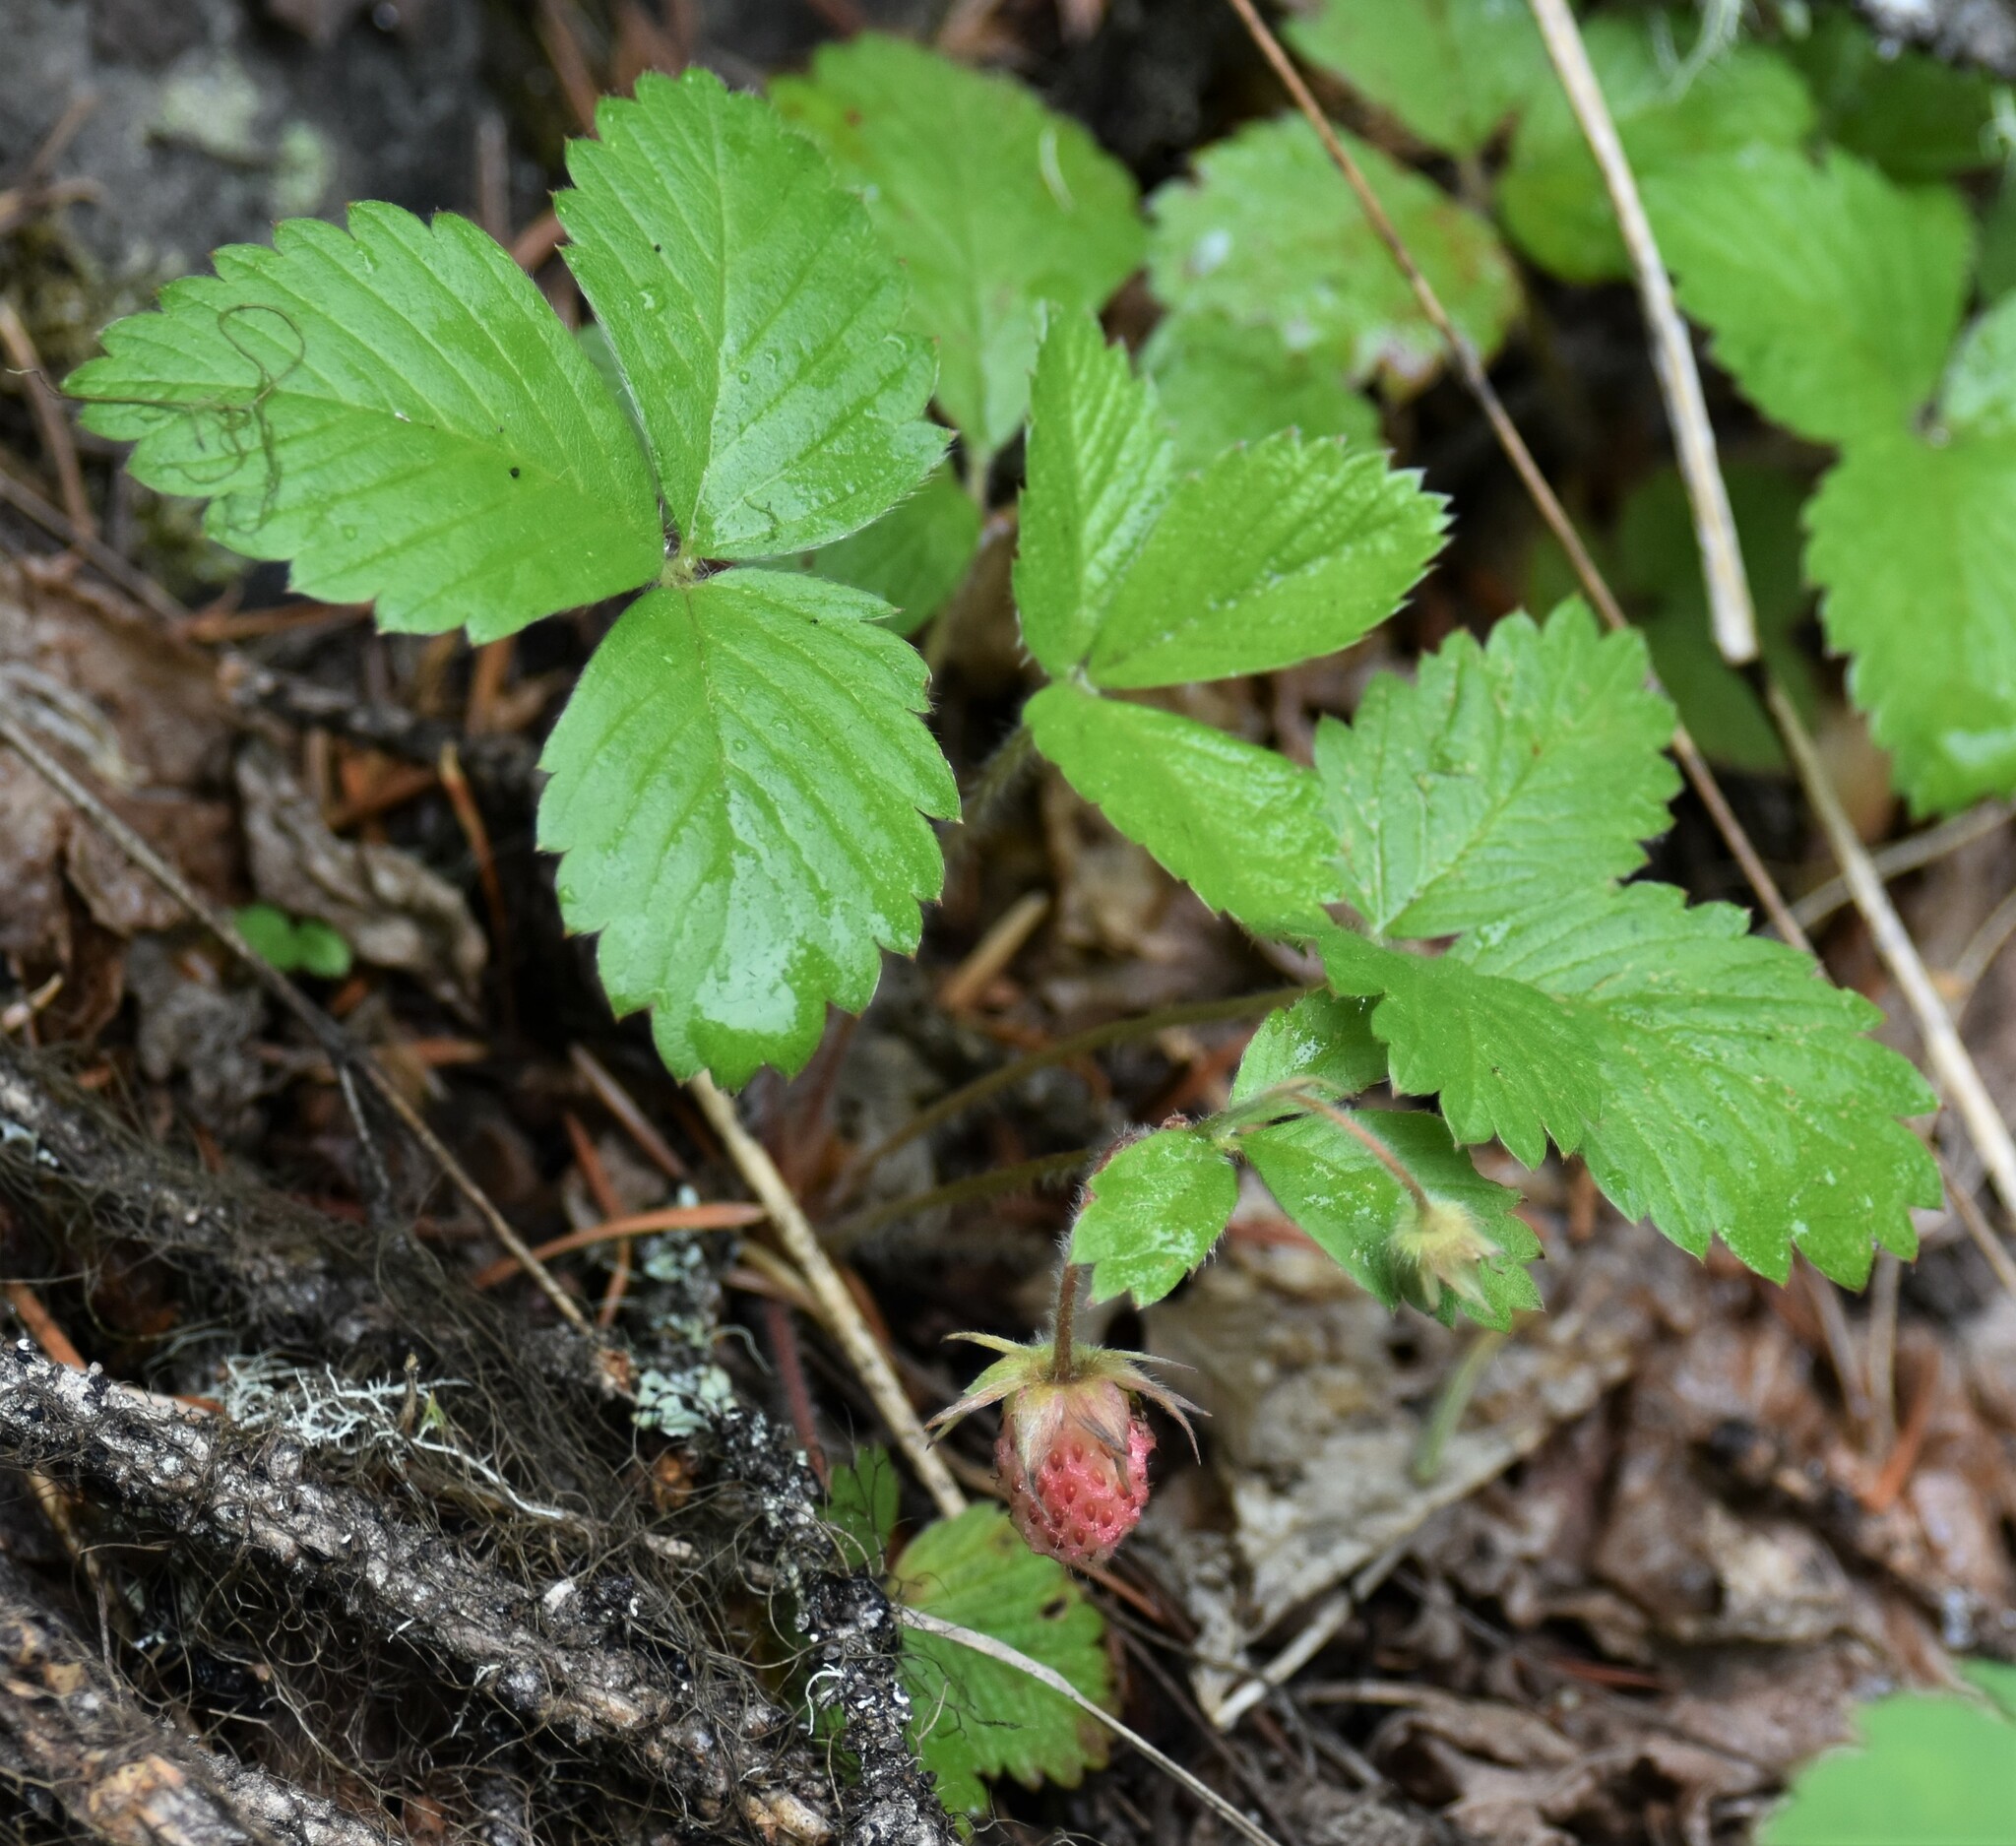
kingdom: Plantae
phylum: Tracheophyta
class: Magnoliopsida
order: Rosales
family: Rosaceae
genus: Fragaria
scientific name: Fragaria vesca
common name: Wild strawberry
